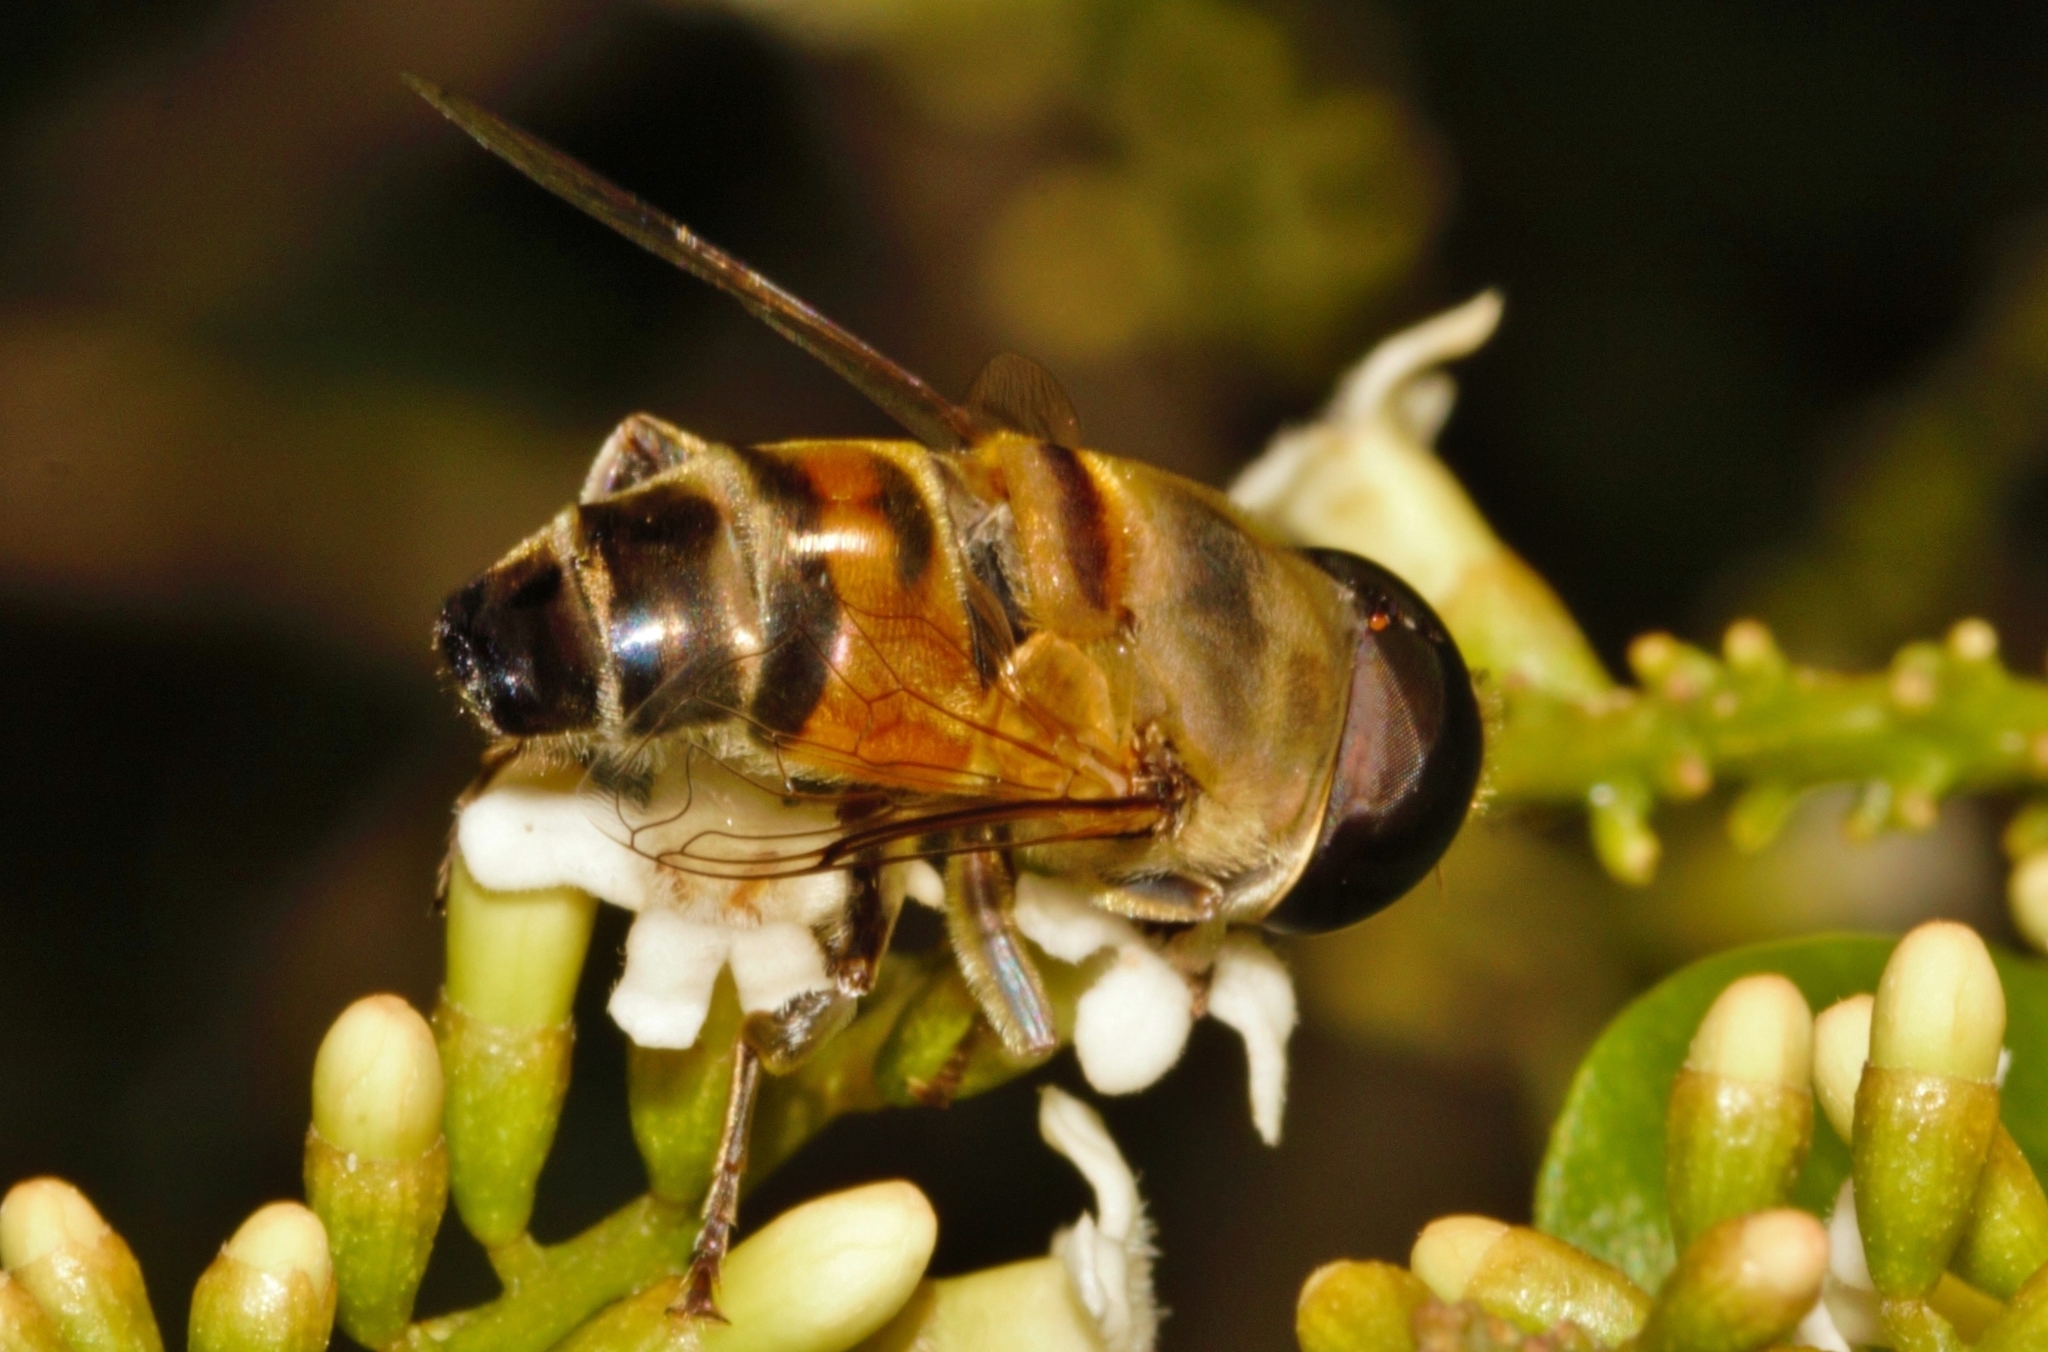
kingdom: Animalia
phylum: Arthropoda
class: Insecta
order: Diptera
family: Syrphidae
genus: Phytomia
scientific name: Phytomia incisa
